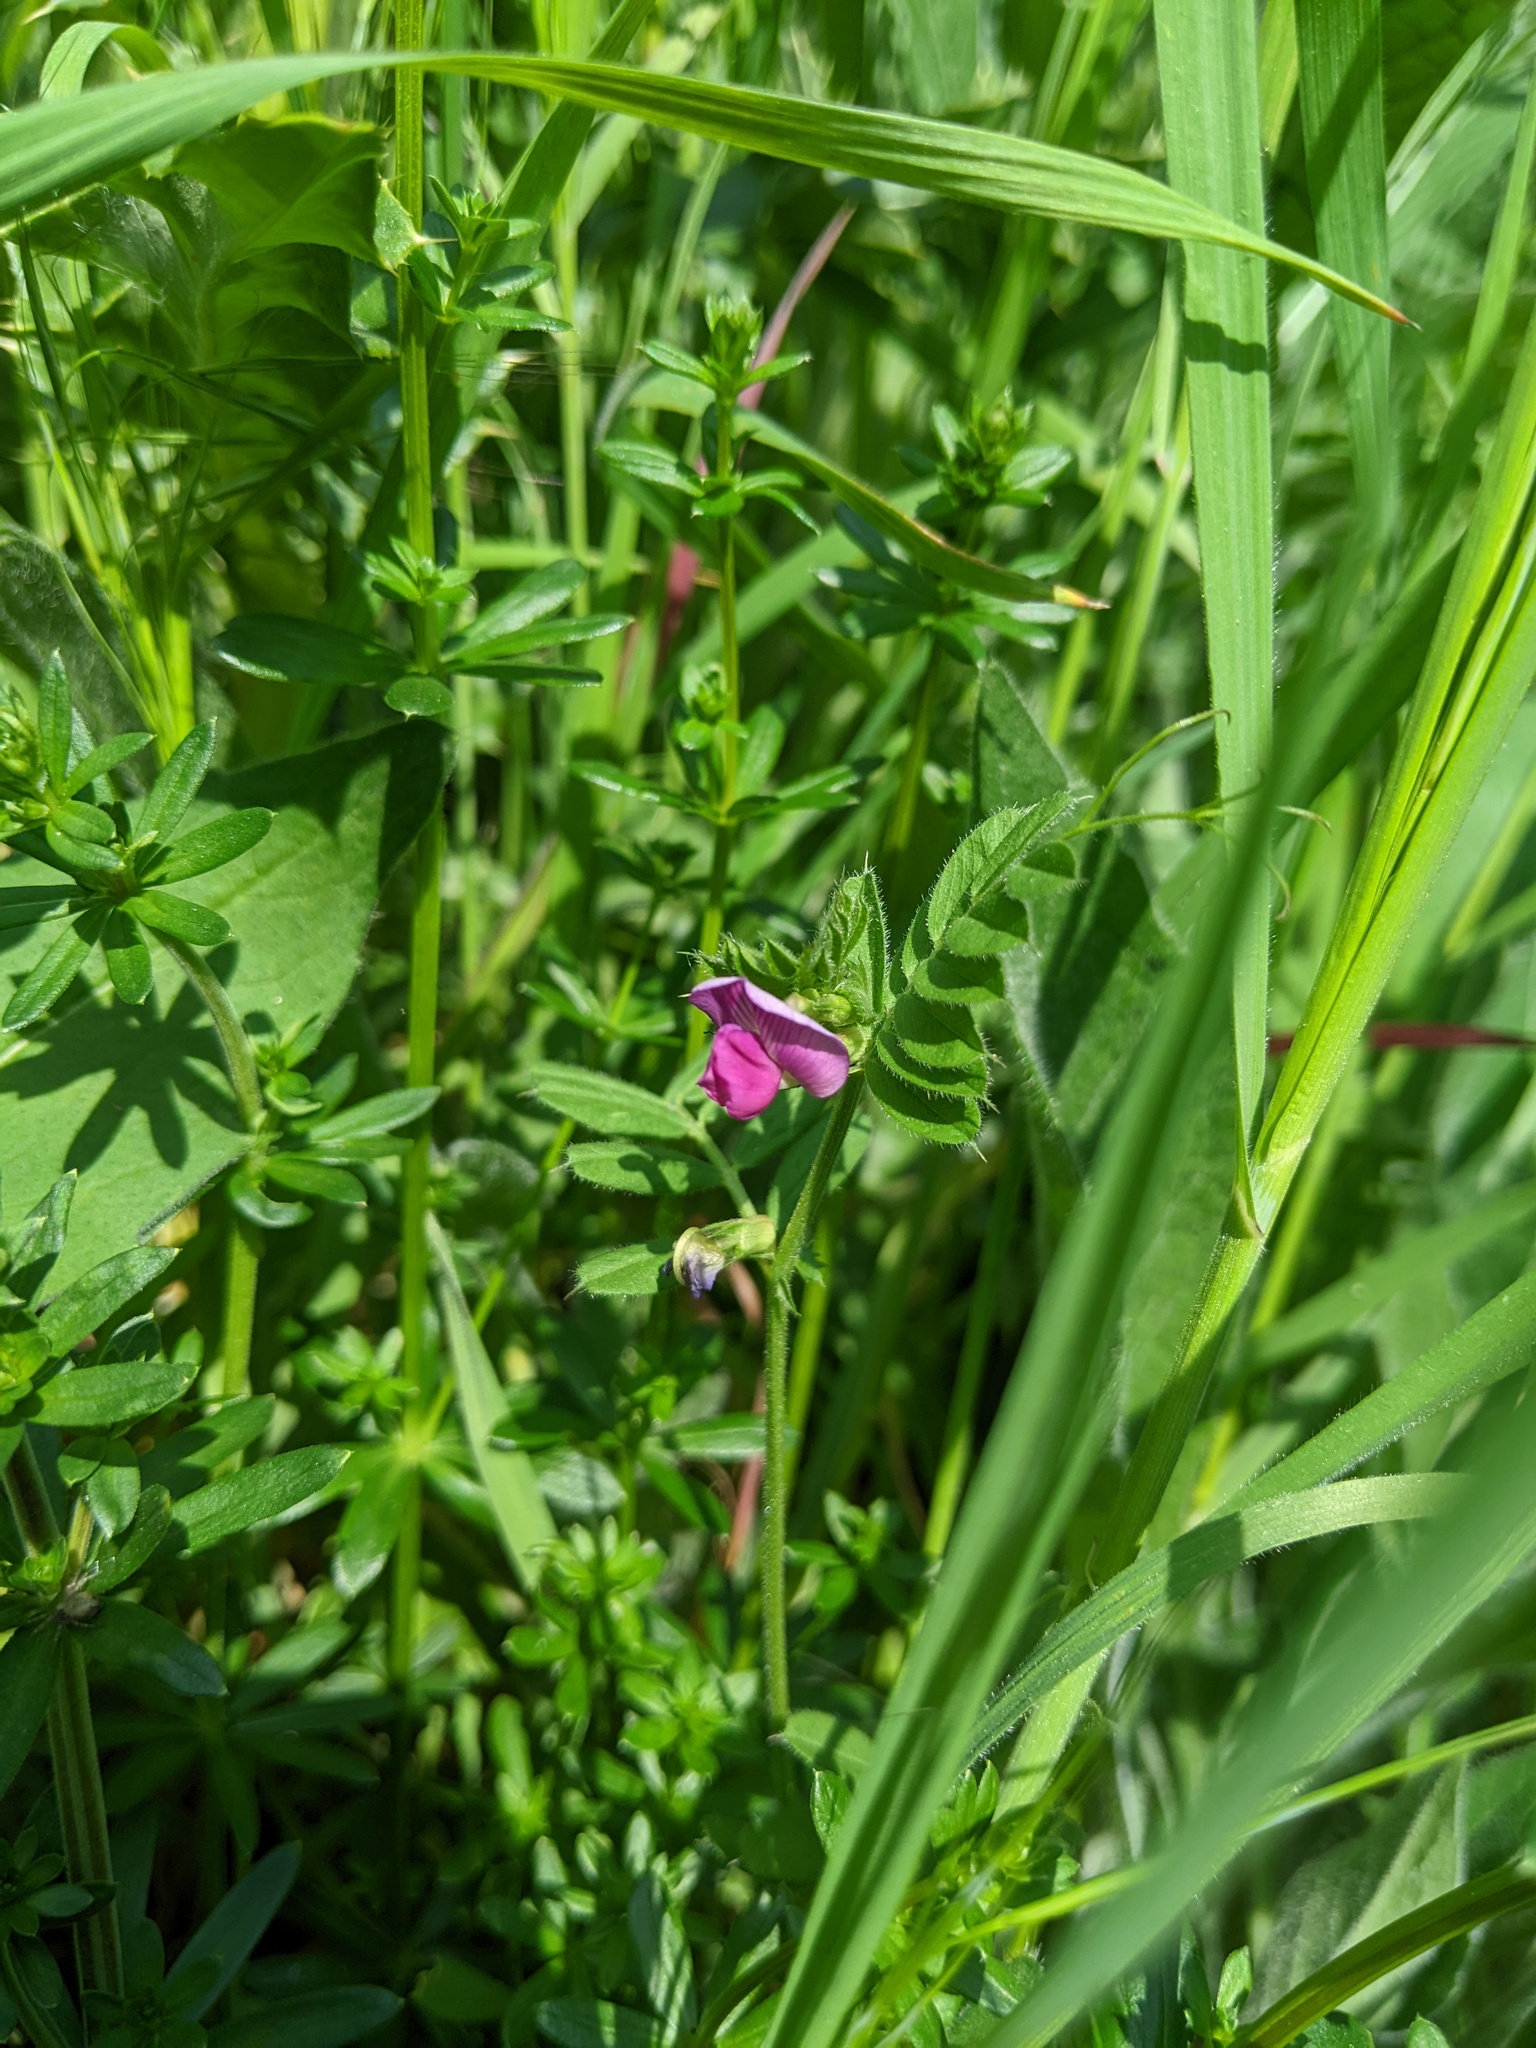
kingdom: Plantae
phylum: Tracheophyta
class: Magnoliopsida
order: Fabales
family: Fabaceae
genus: Vicia
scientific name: Vicia sativa
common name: Garden vetch
